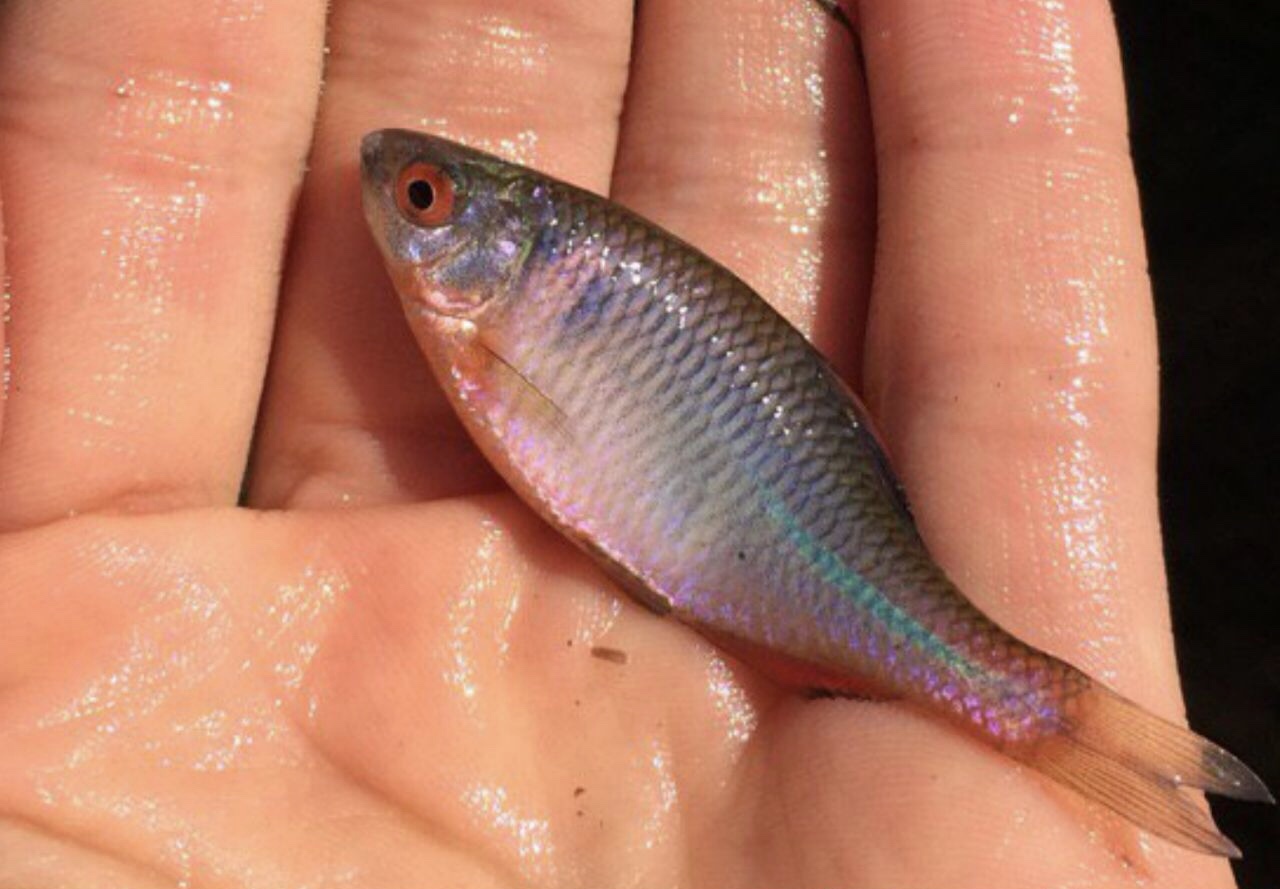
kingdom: Animalia
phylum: Chordata
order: Cypriniformes
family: Cyprinidae
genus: Rhodeus
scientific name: Rhodeus amarus
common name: Bitterling
